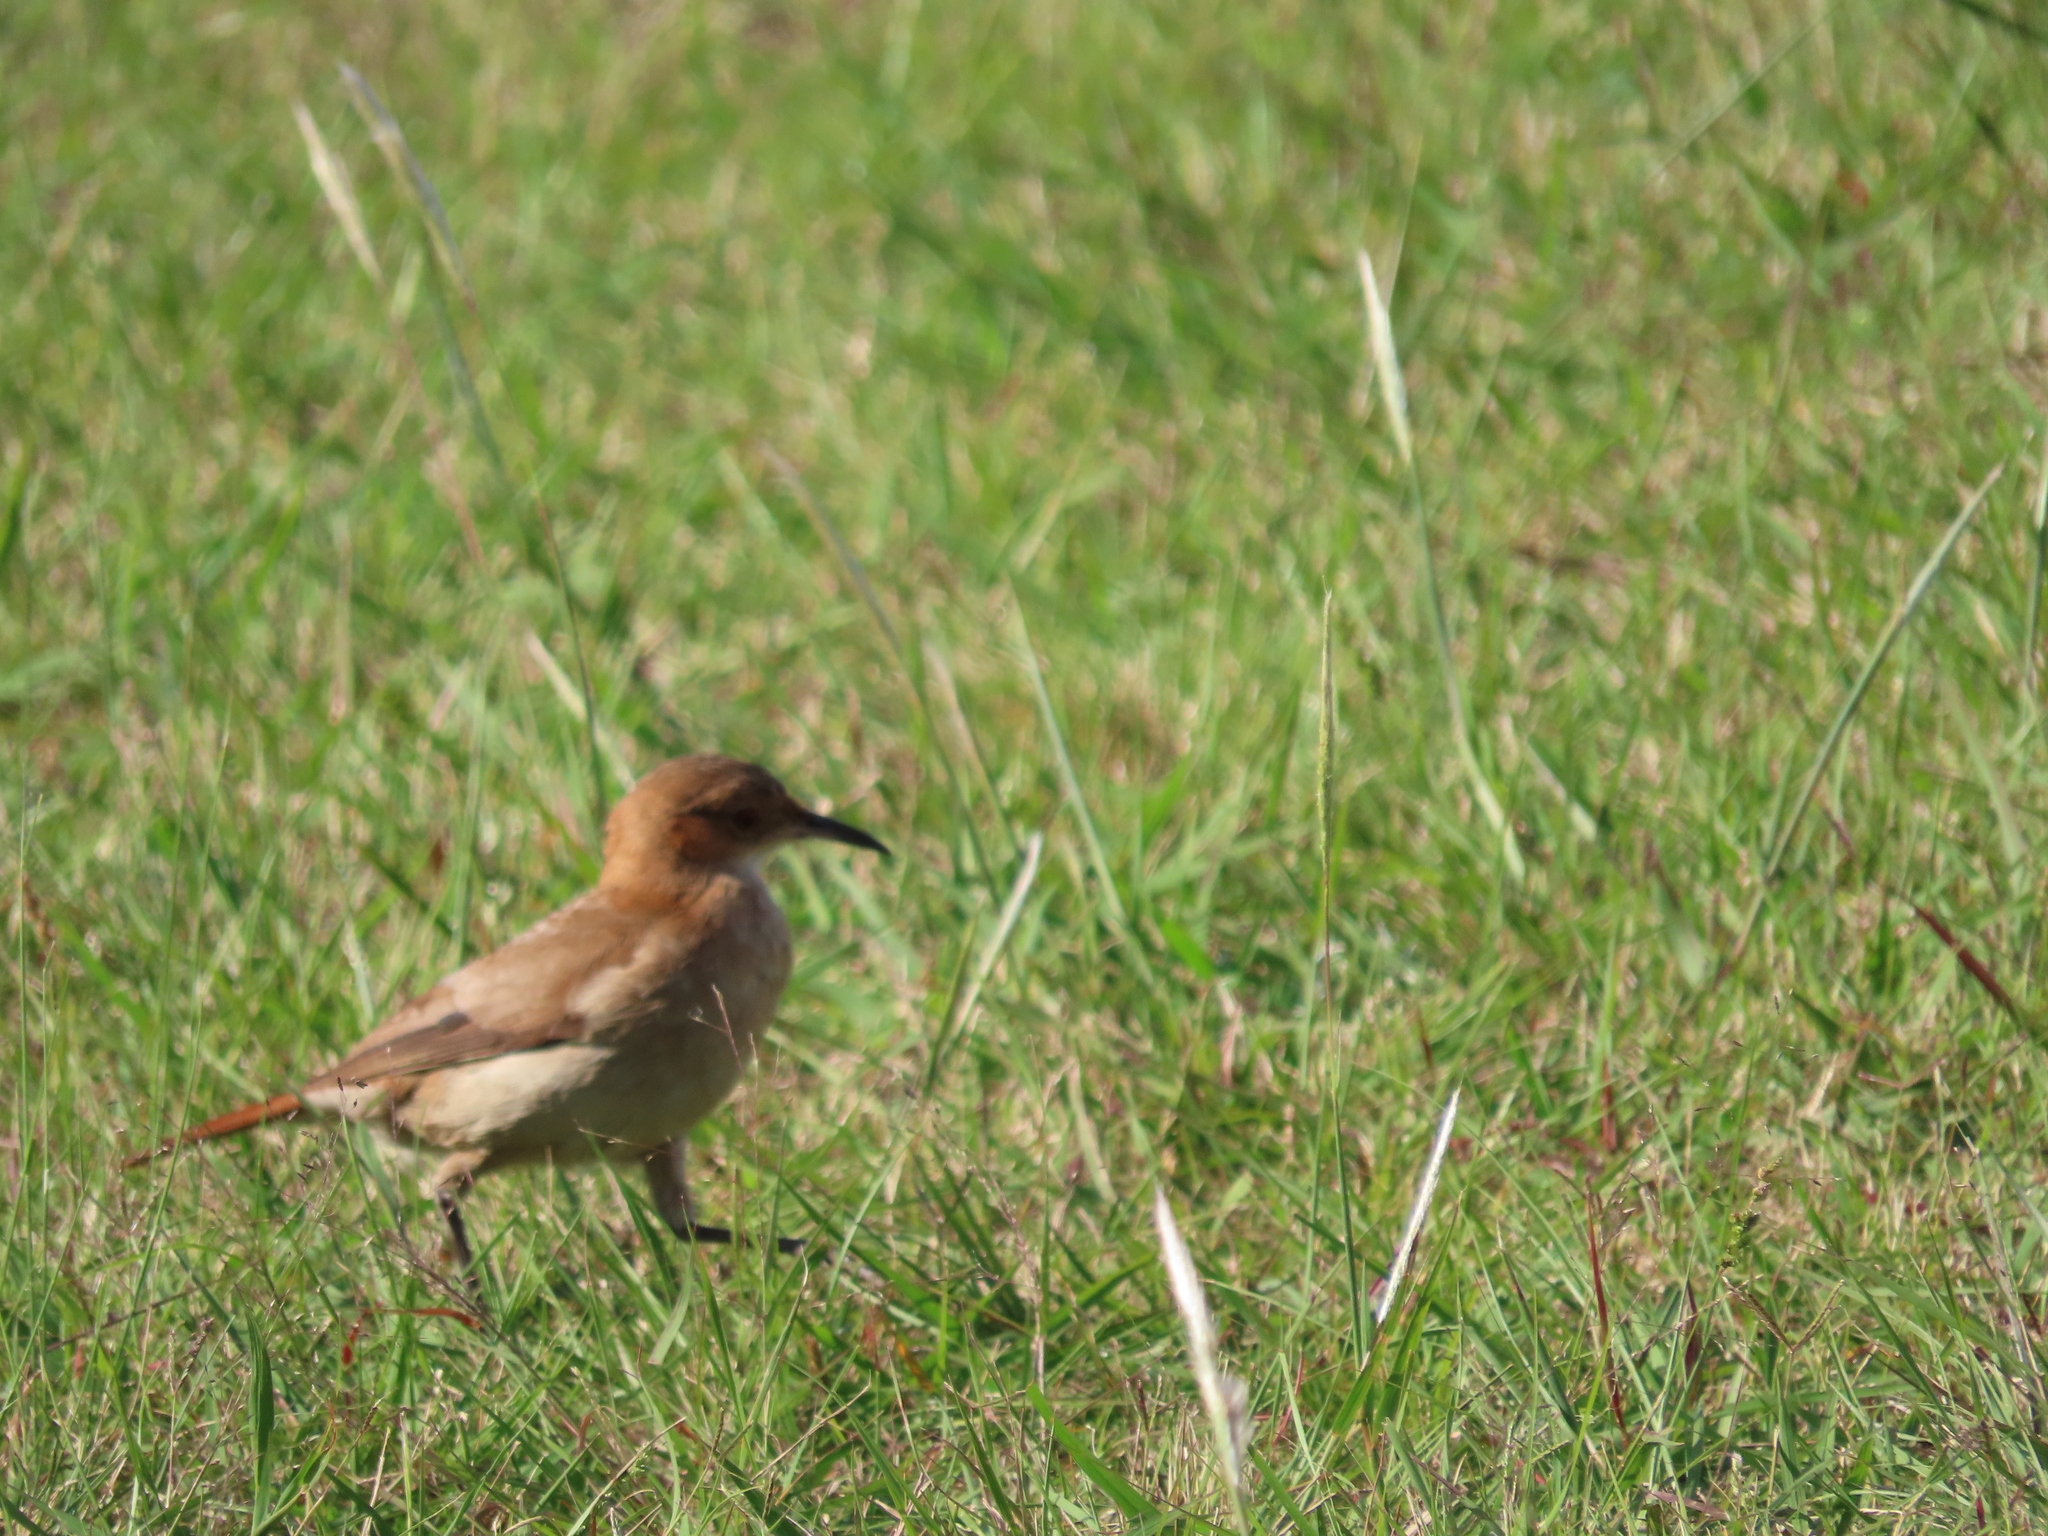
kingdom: Animalia
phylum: Chordata
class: Aves
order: Passeriformes
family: Furnariidae
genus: Furnarius
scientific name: Furnarius rufus
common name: Rufous hornero
